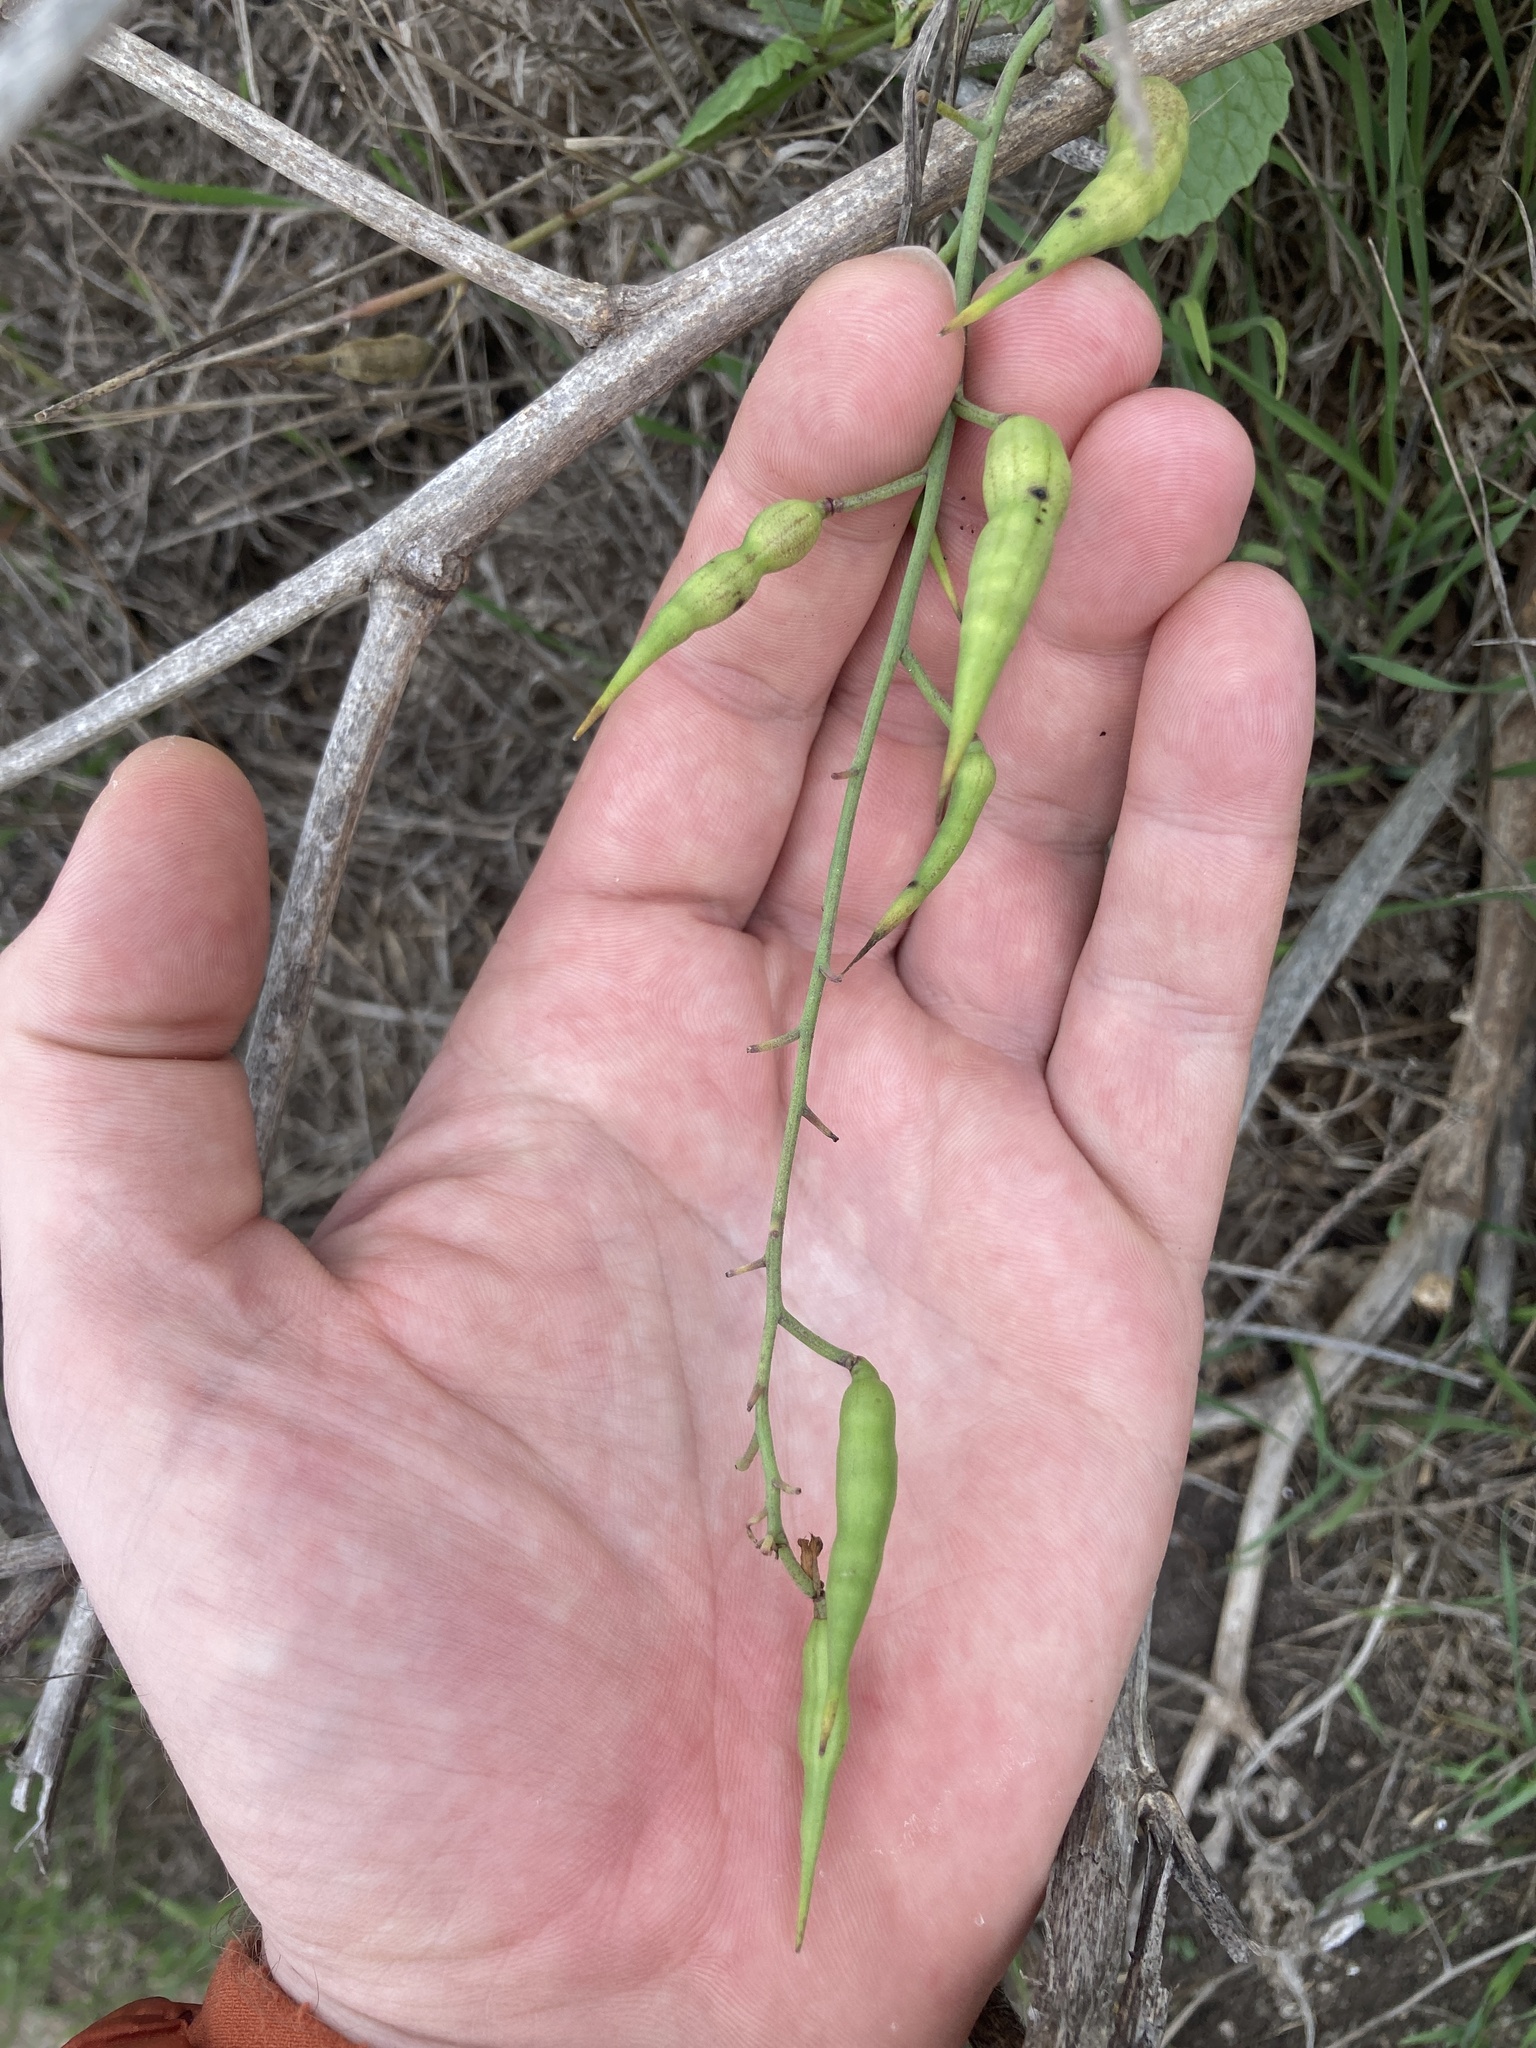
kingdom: Plantae
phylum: Tracheophyta
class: Magnoliopsida
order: Brassicales
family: Brassicaceae
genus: Raphanus
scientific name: Raphanus sativus
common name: Cultivated radish
